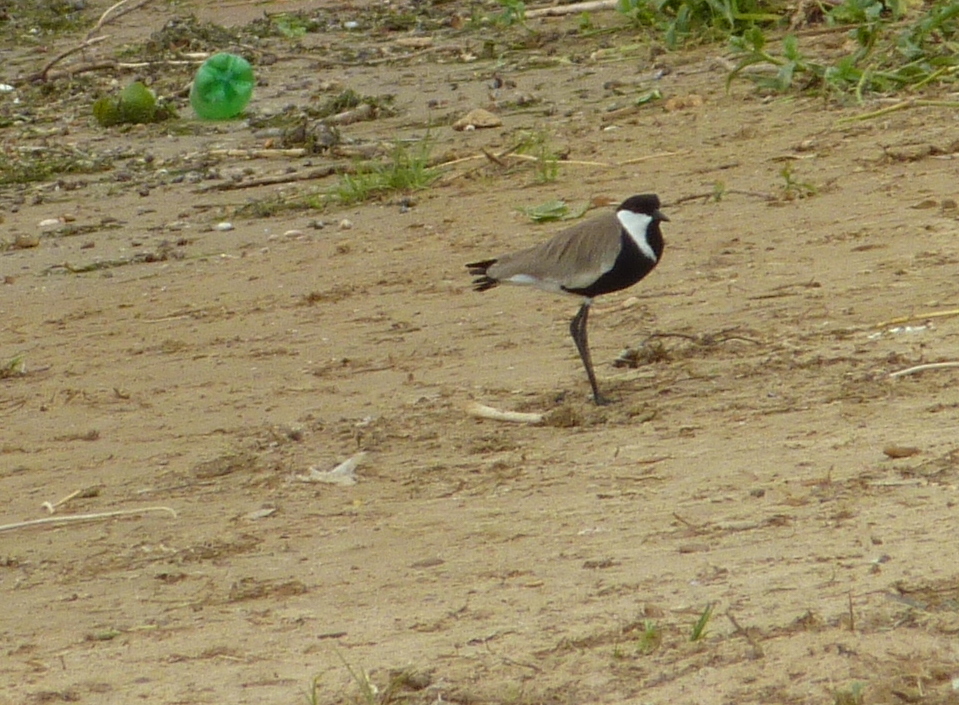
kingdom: Animalia
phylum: Chordata
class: Aves
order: Charadriiformes
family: Charadriidae
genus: Vanellus
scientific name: Vanellus spinosus
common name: Spur-winged lapwing
